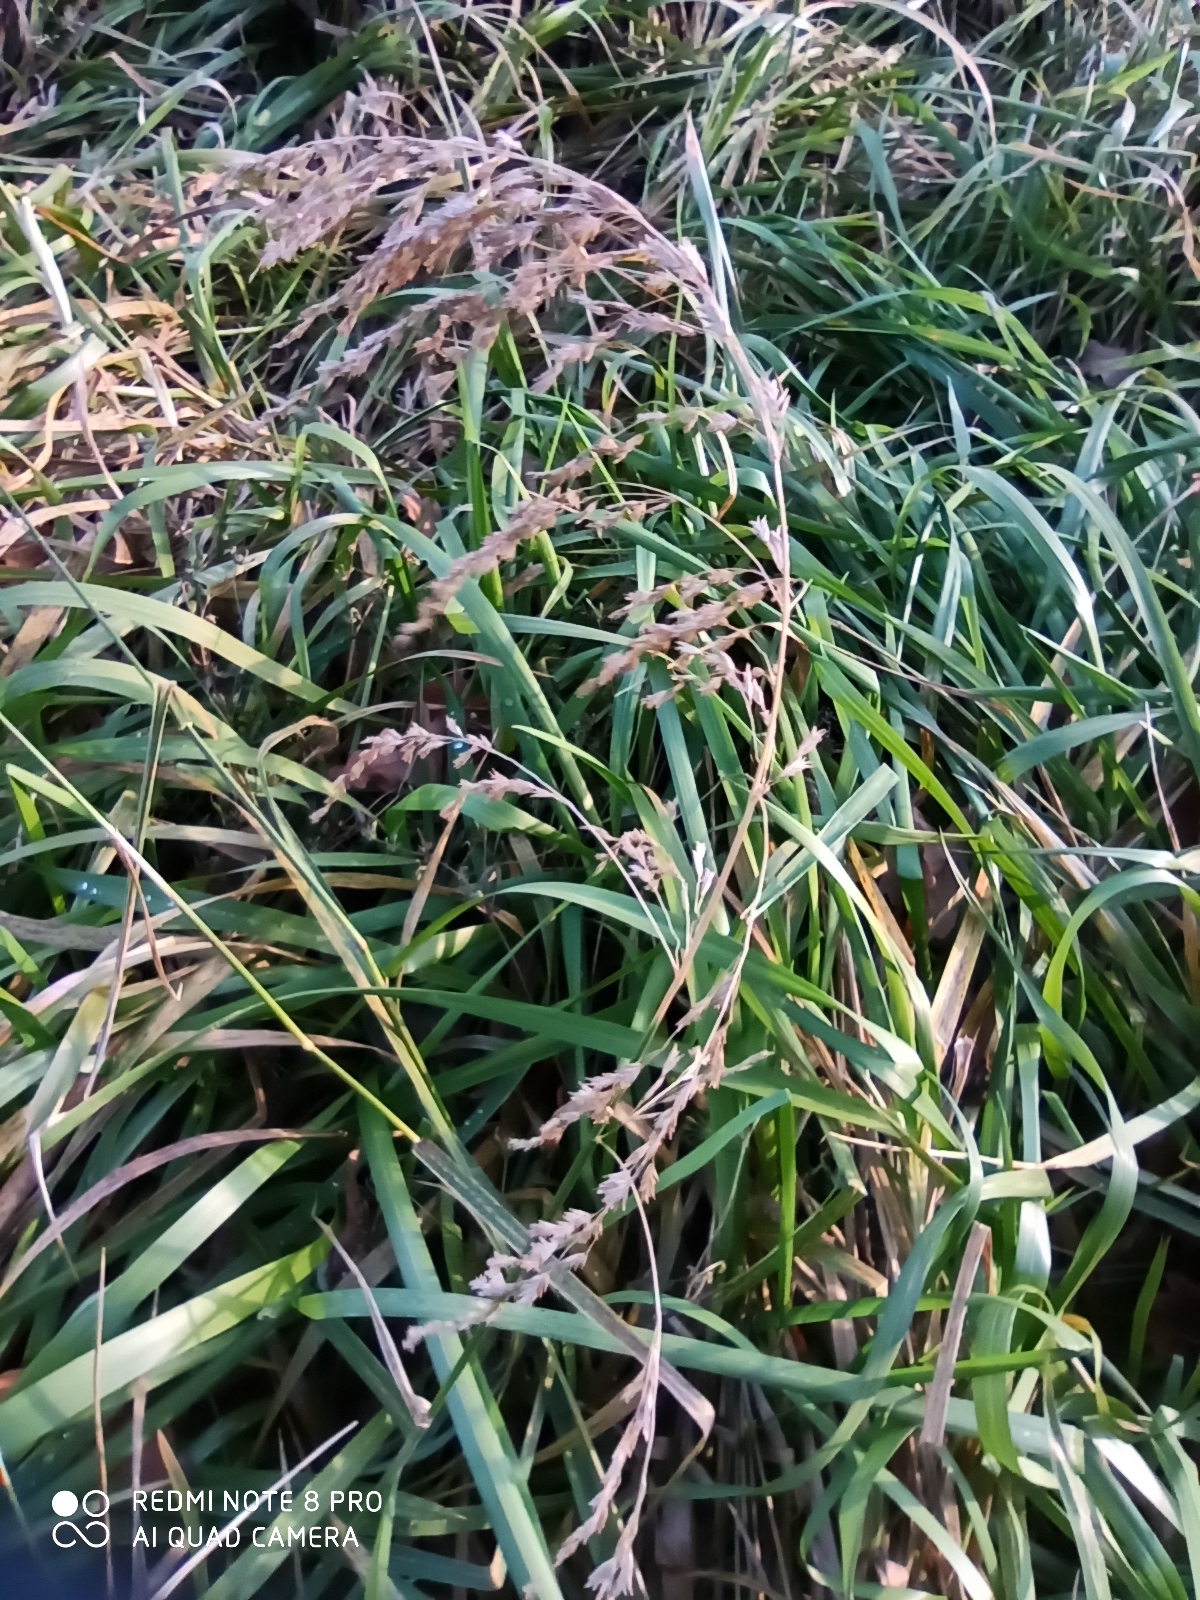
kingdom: Plantae
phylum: Tracheophyta
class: Liliopsida
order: Poales
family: Poaceae
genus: Glyceria
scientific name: Glyceria maxima
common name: Reed mannagrass
